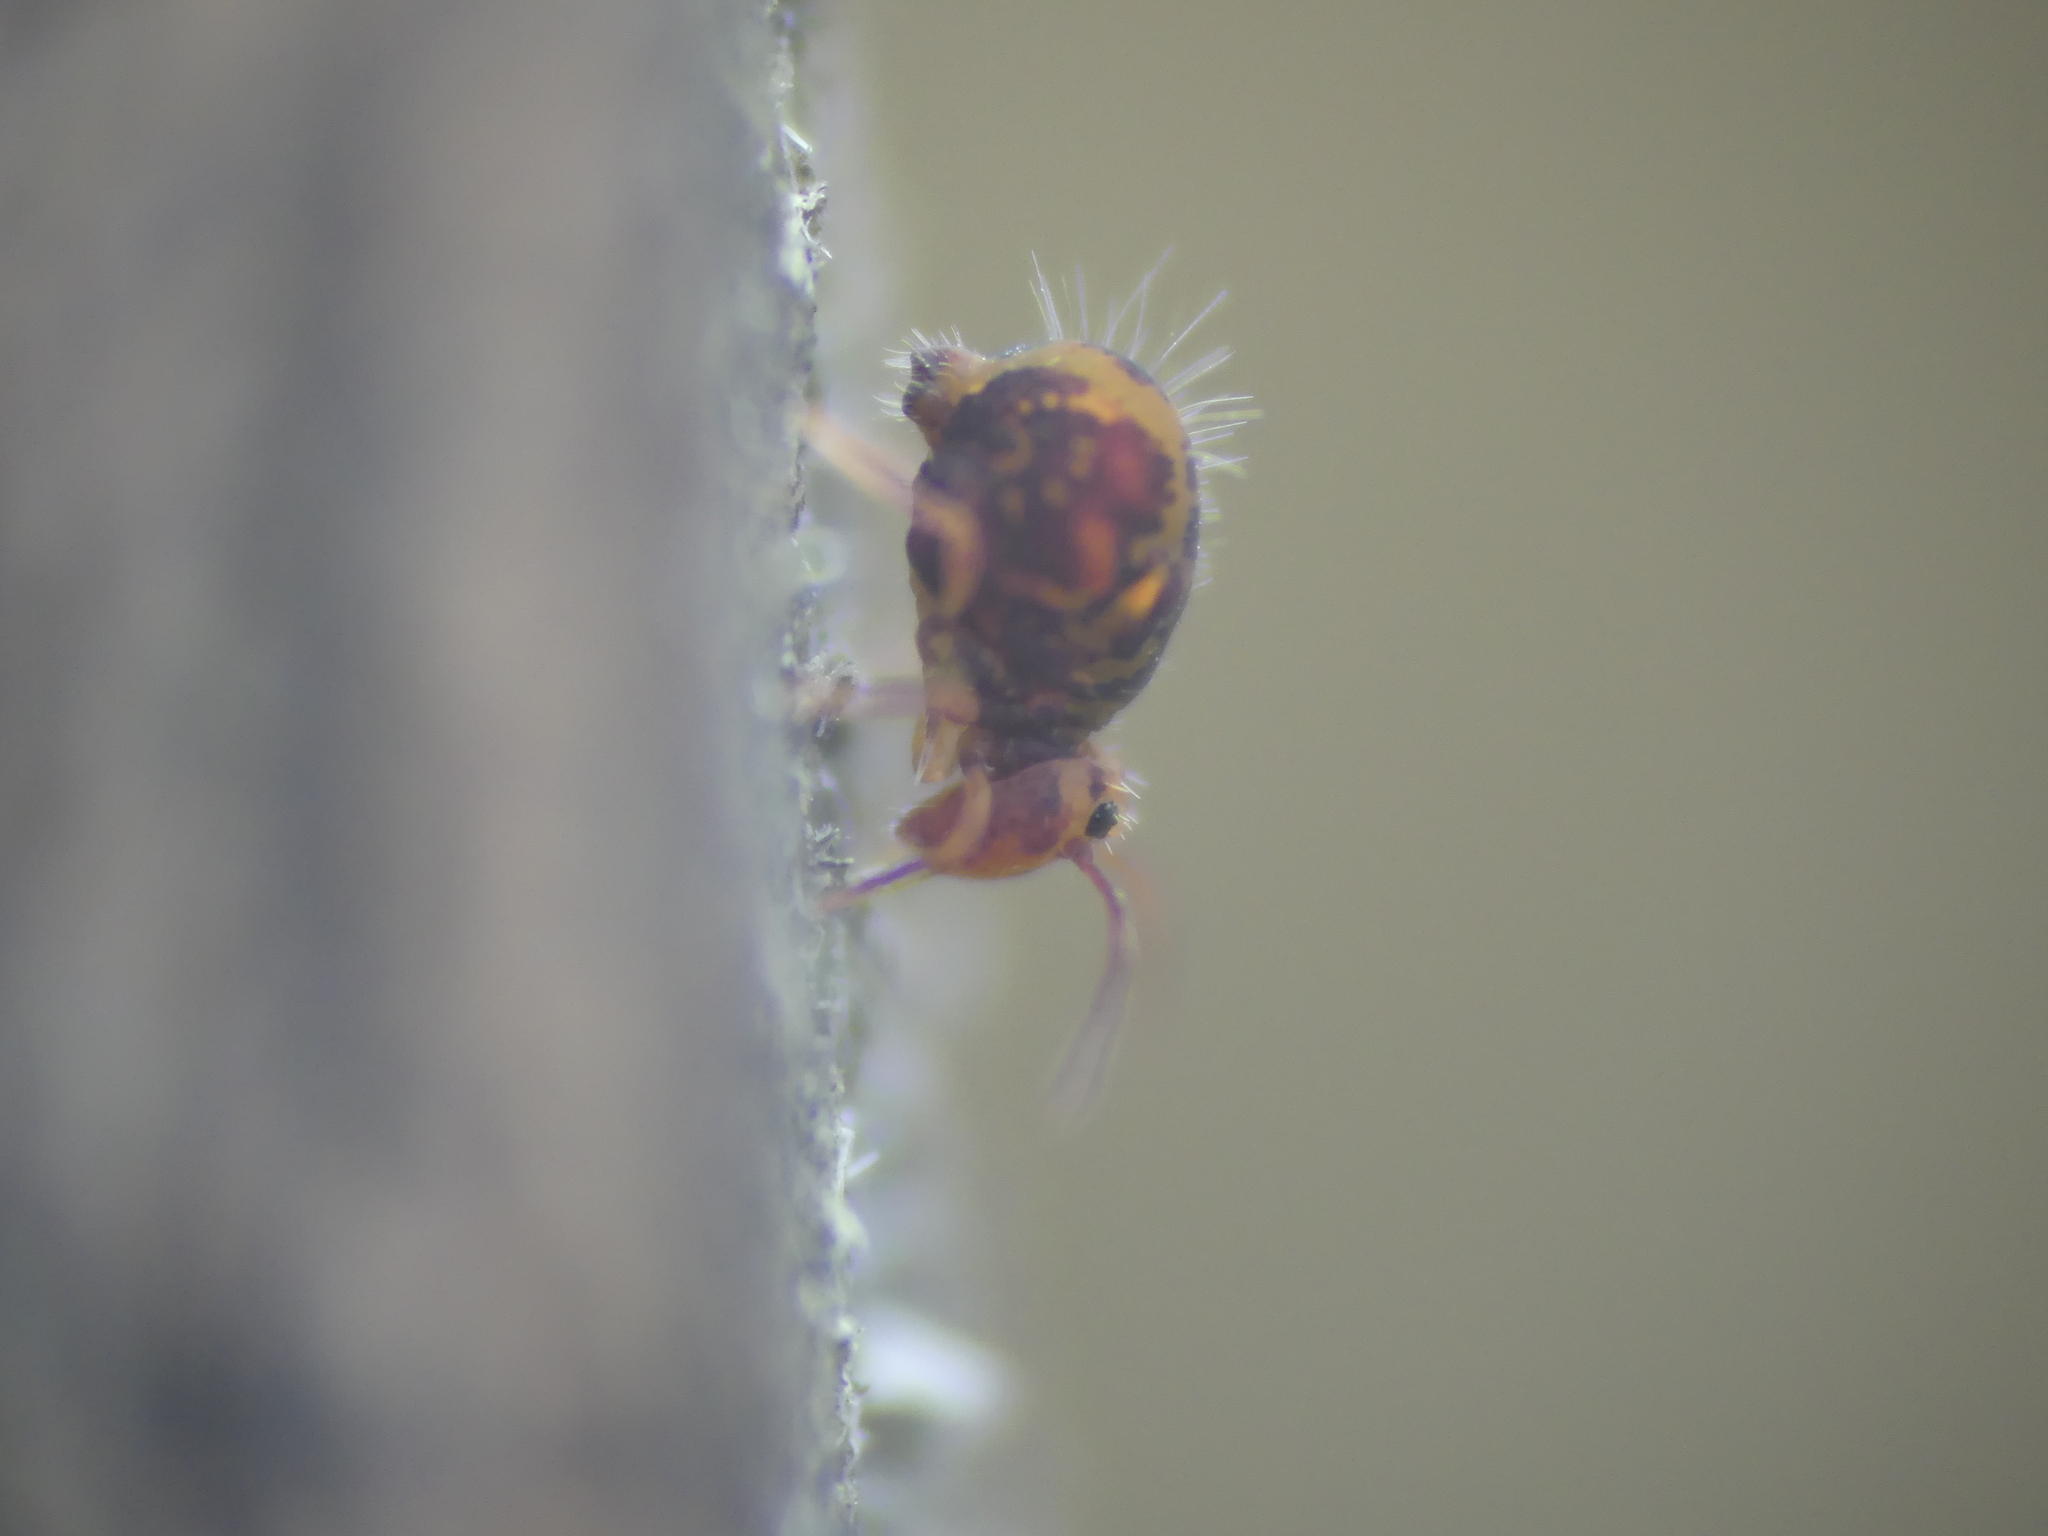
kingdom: Animalia
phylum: Arthropoda
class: Collembola
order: Symphypleona
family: Dicyrtomidae
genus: Dicyrtomina
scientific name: Dicyrtomina ornata
